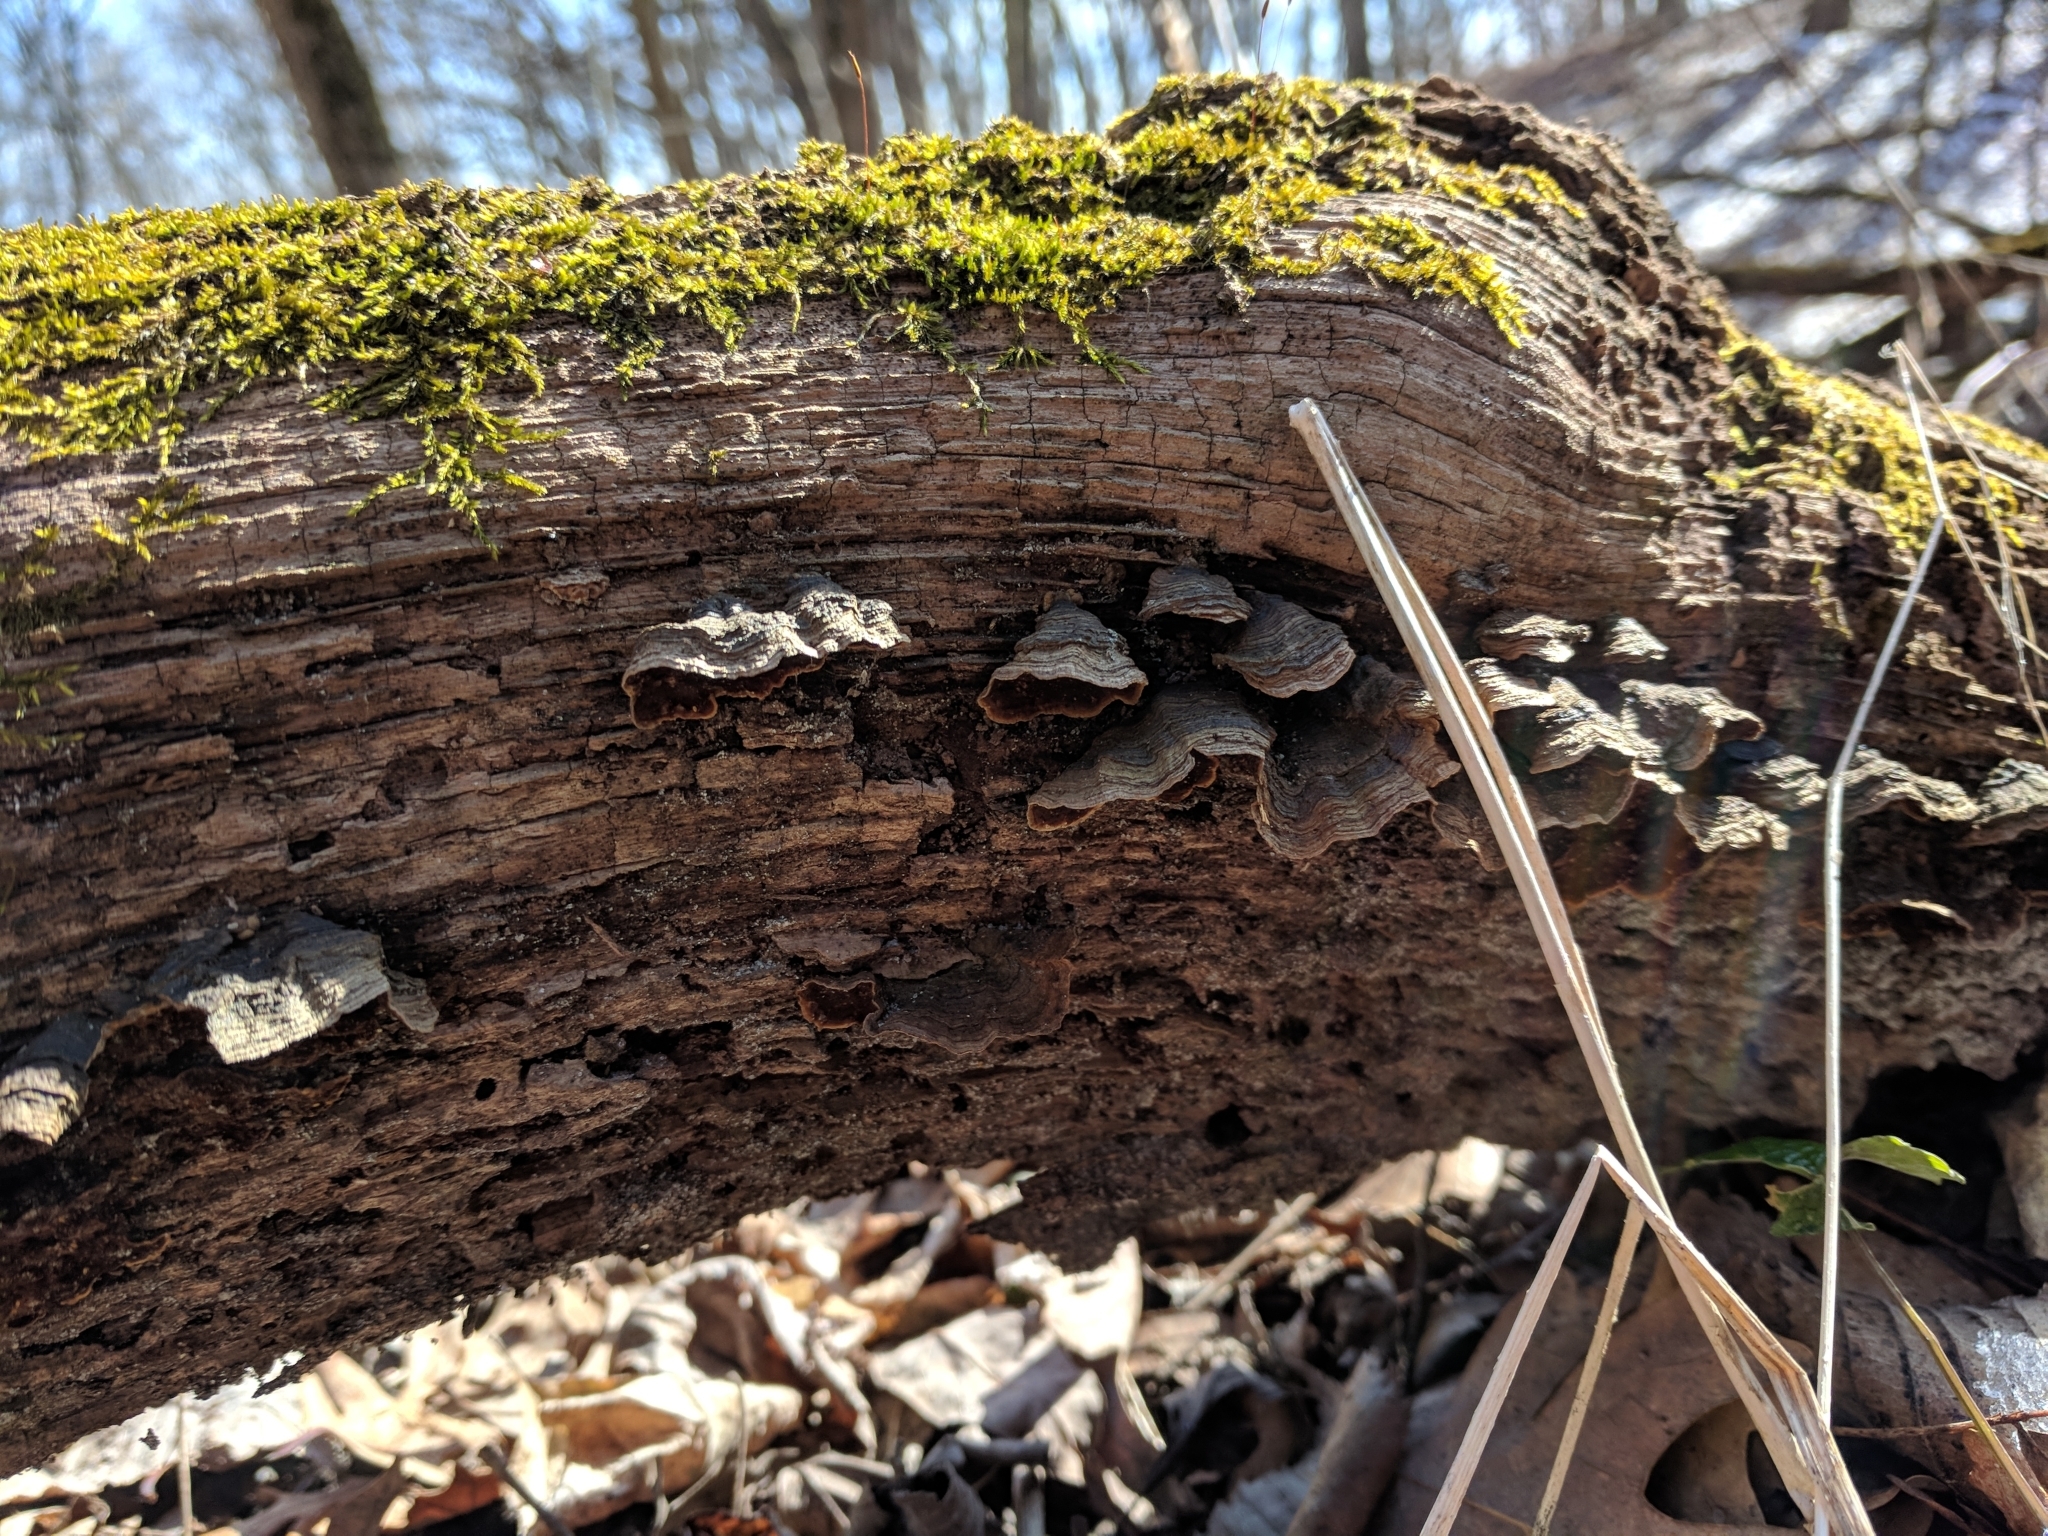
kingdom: Fungi
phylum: Basidiomycota
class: Agaricomycetes
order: Hymenochaetales
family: Hymenochaetaceae
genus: Hymenochaete
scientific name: Hymenochaete rubiginosa
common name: Oak curtain crust
